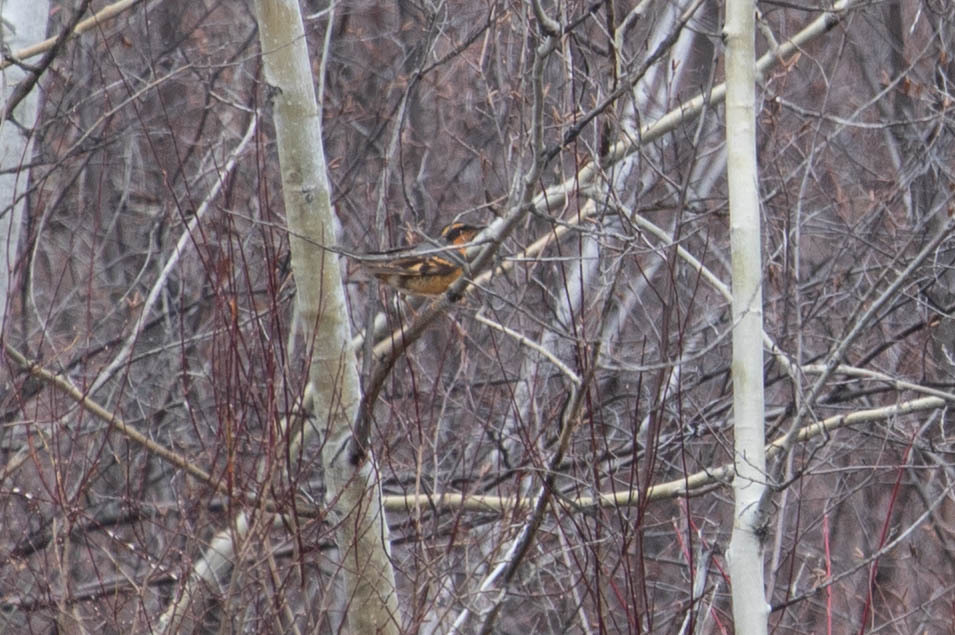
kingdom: Animalia
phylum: Chordata
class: Aves
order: Passeriformes
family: Turdidae
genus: Ixoreus
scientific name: Ixoreus naevius
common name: Varied thrush
